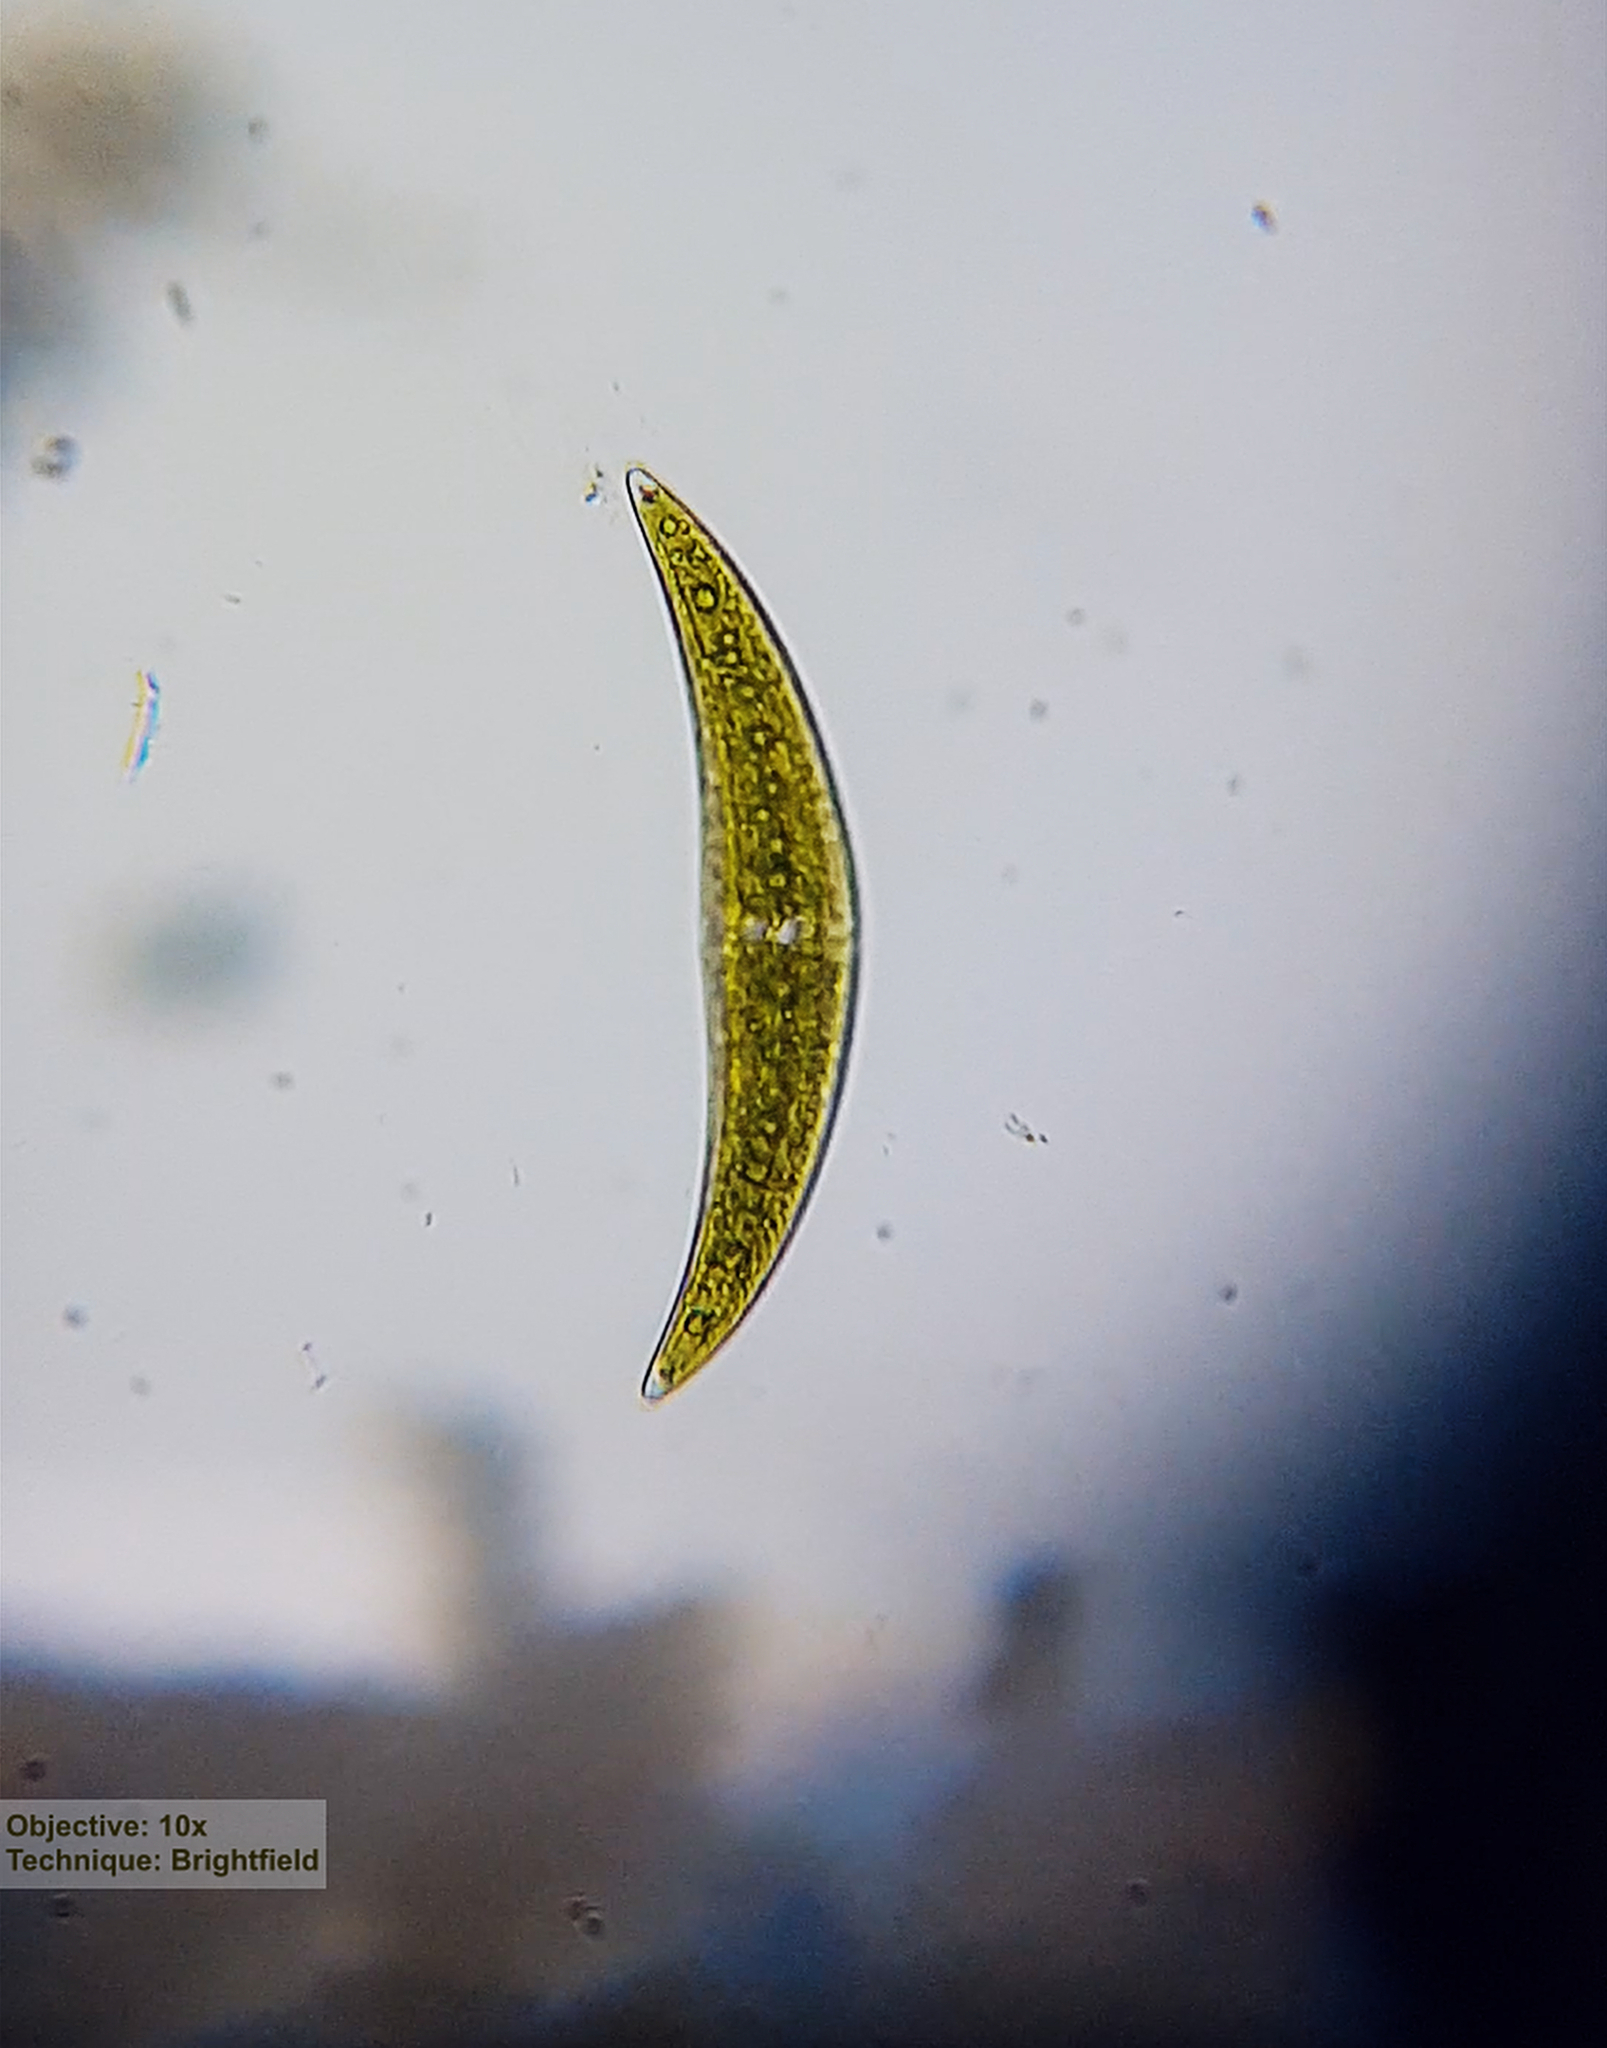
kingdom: Plantae
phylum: Charophyta
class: Zygnematophyceae
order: Zygnematales
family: Closteriaceae
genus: Closterium
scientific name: Closterium moniliferum
